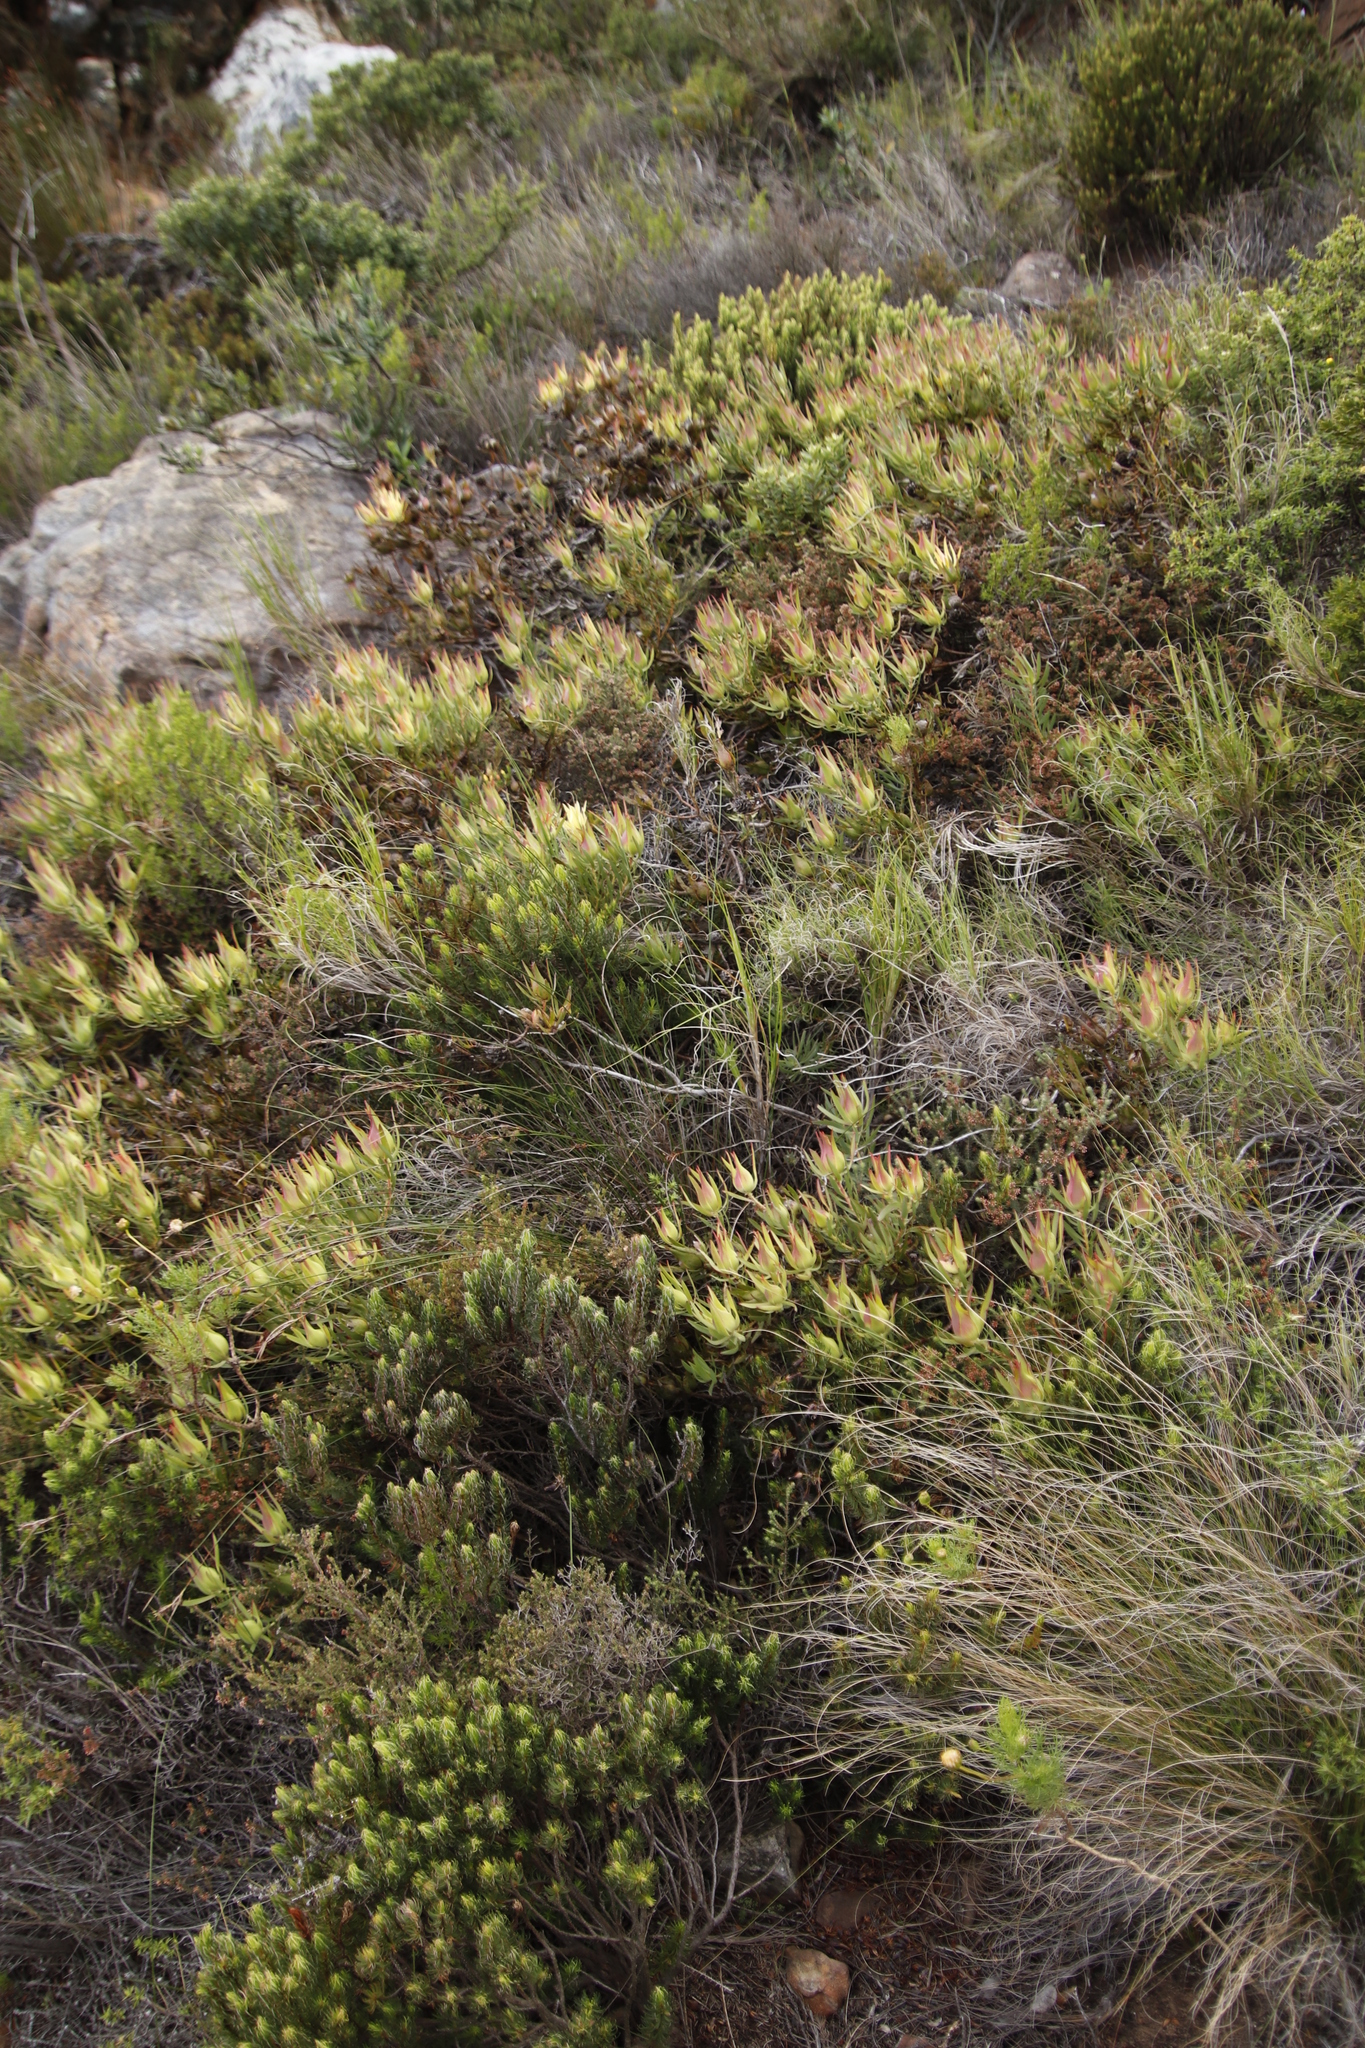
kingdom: Plantae
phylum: Tracheophyta
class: Magnoliopsida
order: Proteales
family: Proteaceae
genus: Leucadendron
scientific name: Leucadendron salignum
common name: Common sunshine conebush
